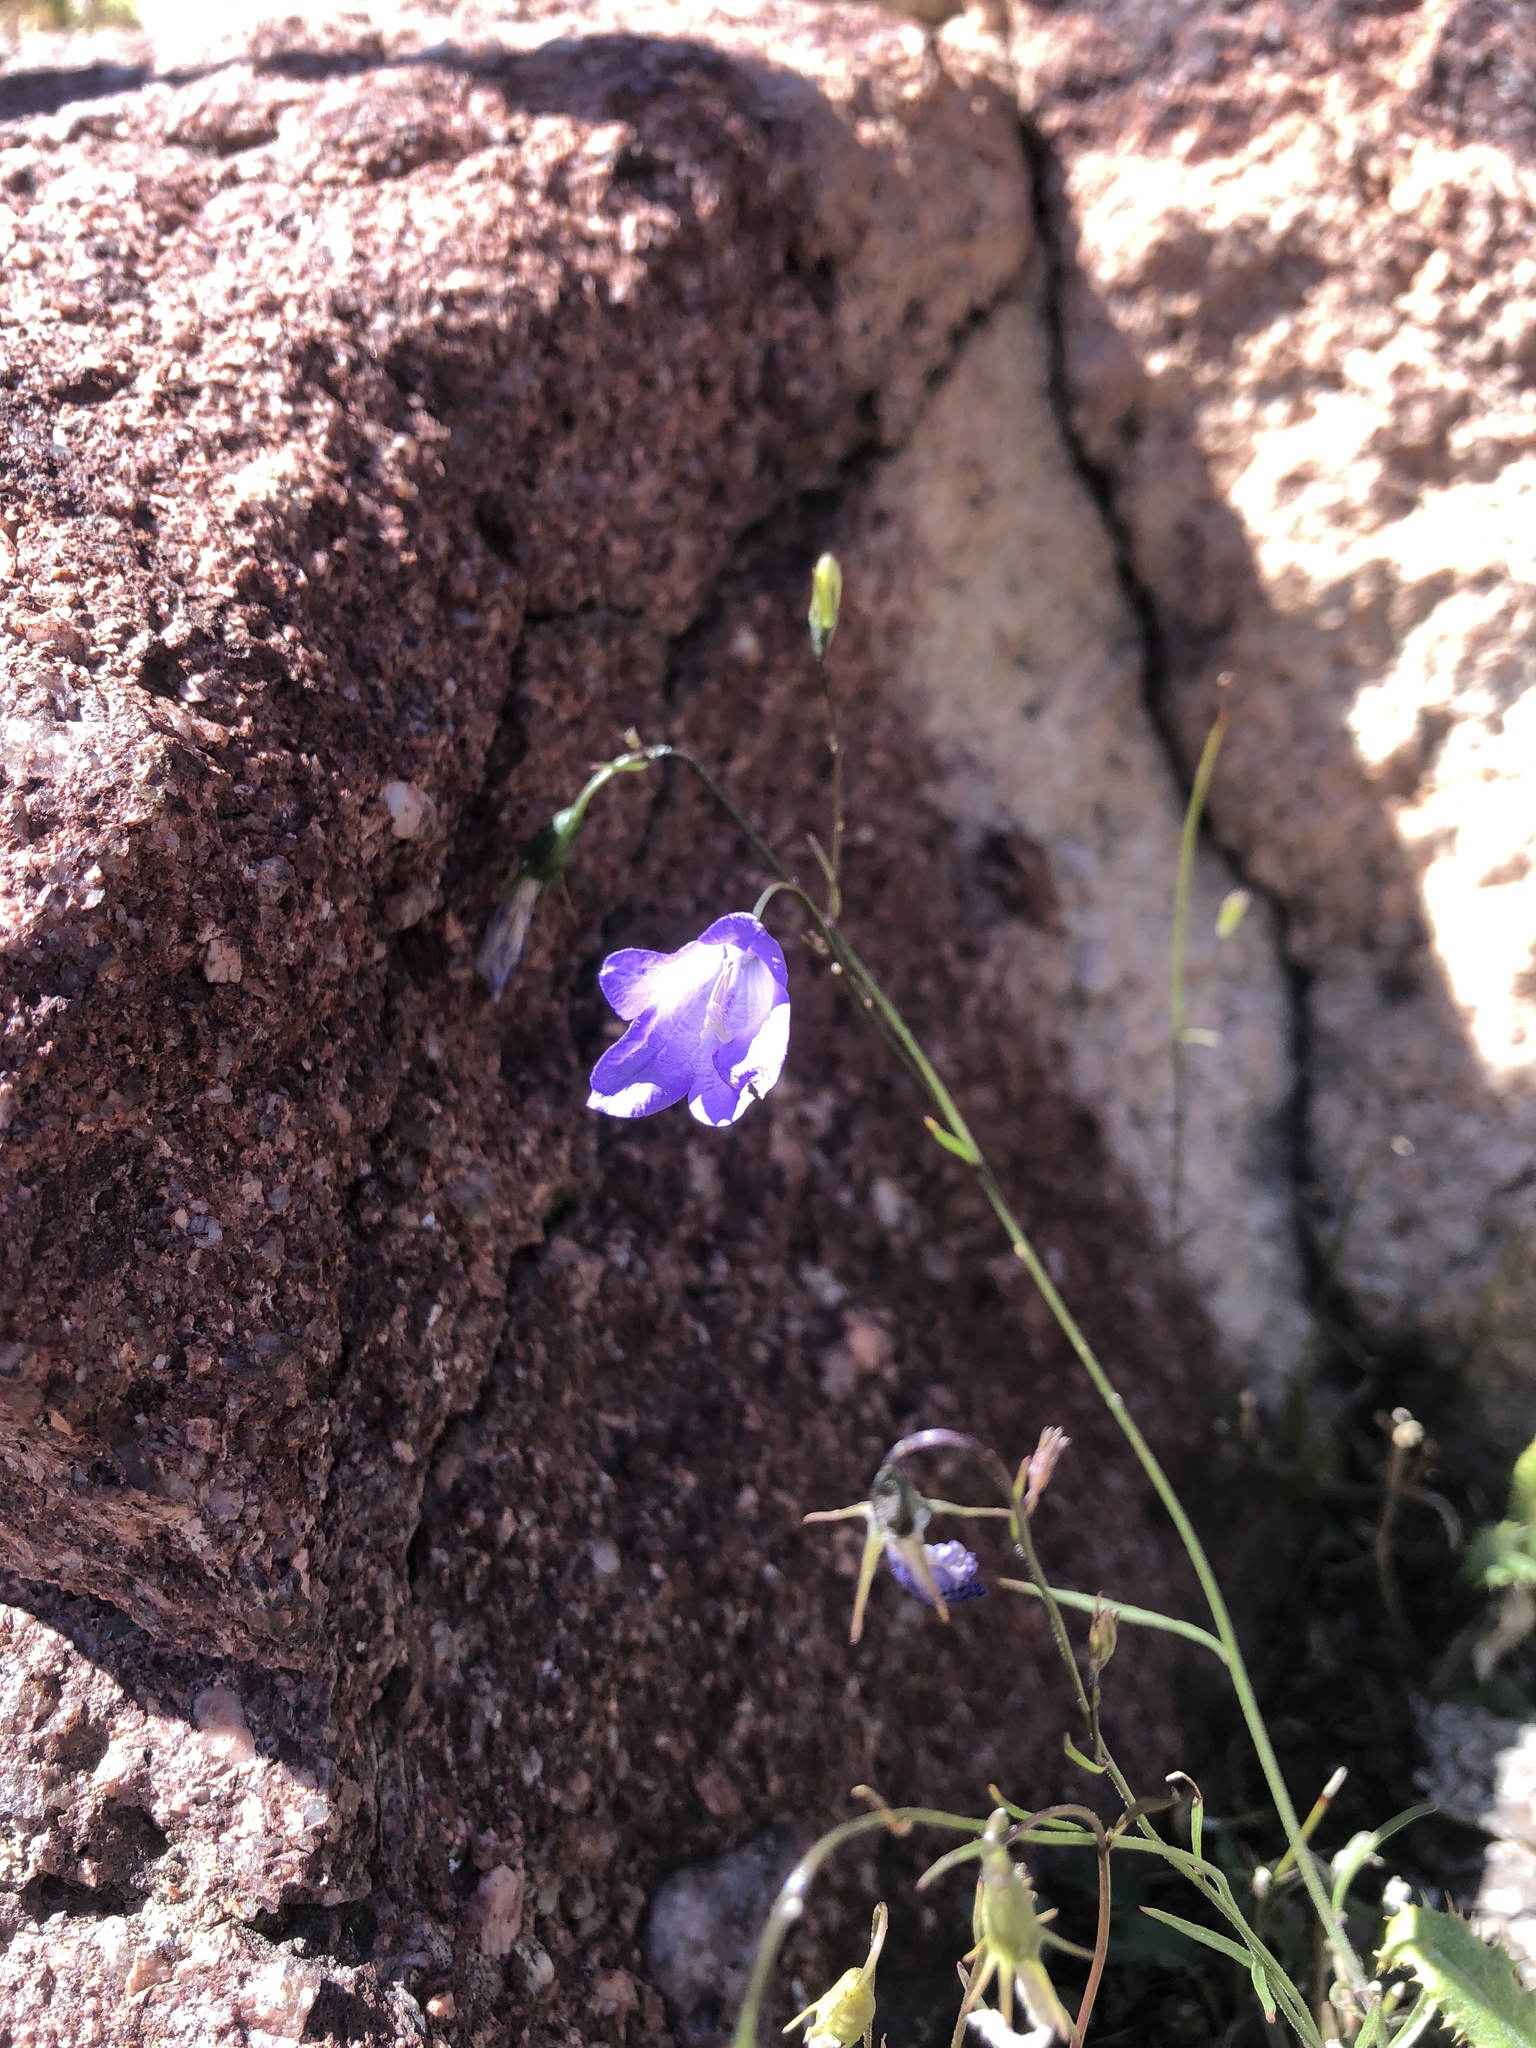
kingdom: Plantae
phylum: Tracheophyta
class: Magnoliopsida
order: Asterales
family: Campanulaceae
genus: Campanula
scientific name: Campanula petiolata
